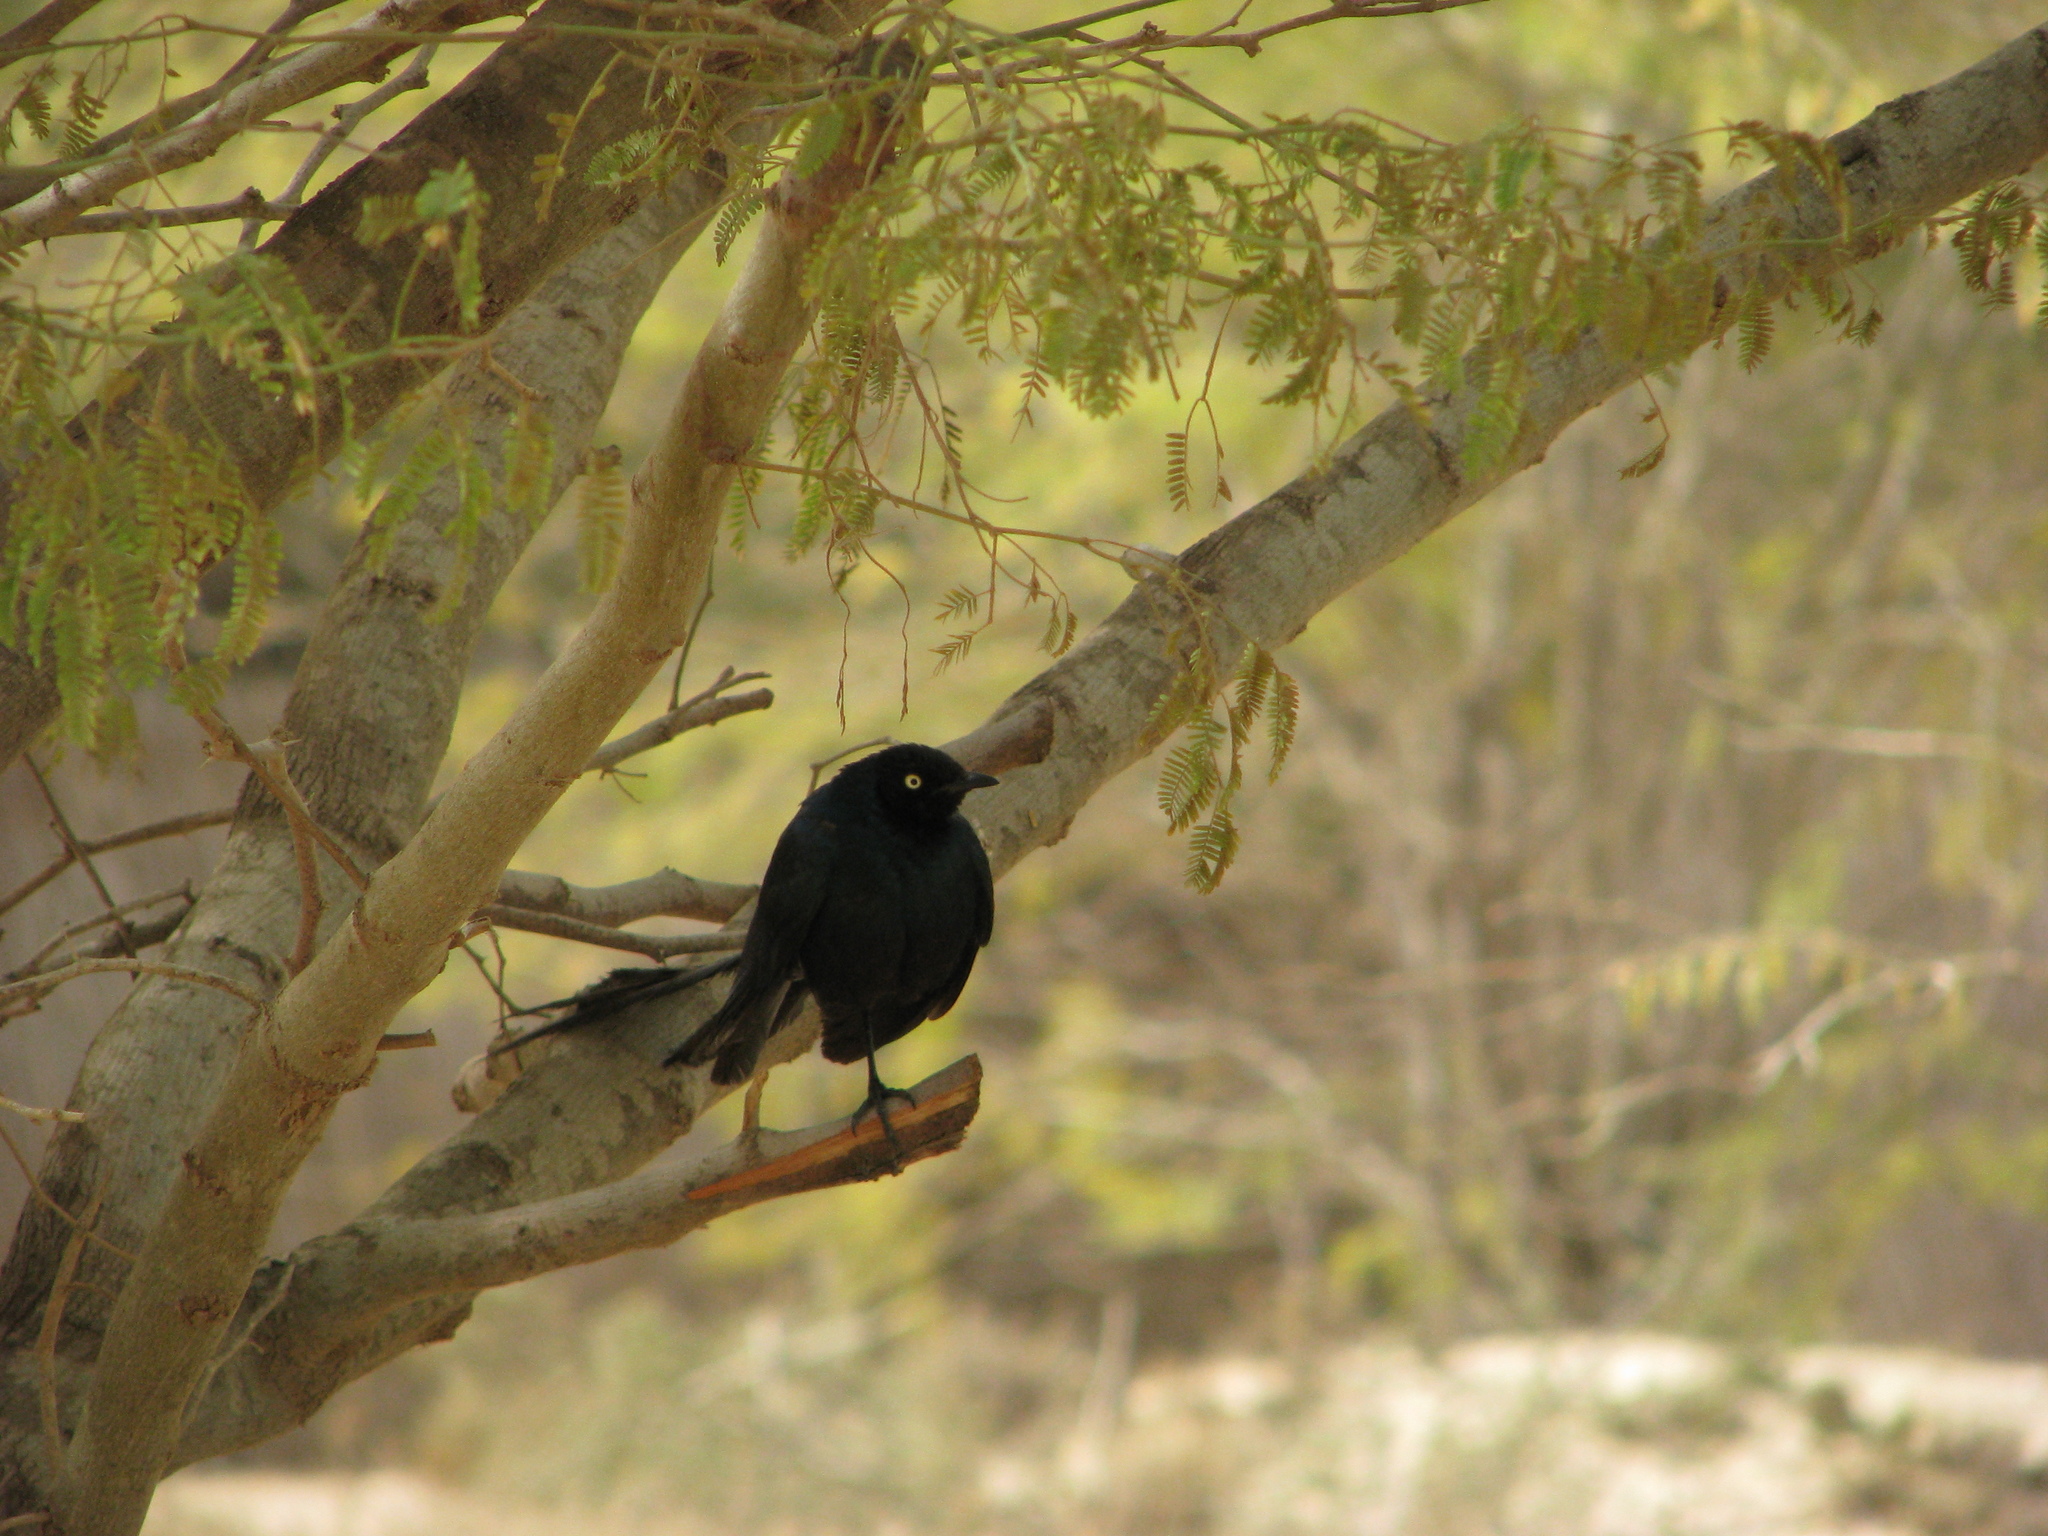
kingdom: Animalia
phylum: Chordata
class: Aves
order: Passeriformes
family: Sturnidae
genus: Lamprotornis
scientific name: Lamprotornis caudatus
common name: Long-tailed glossy starling
